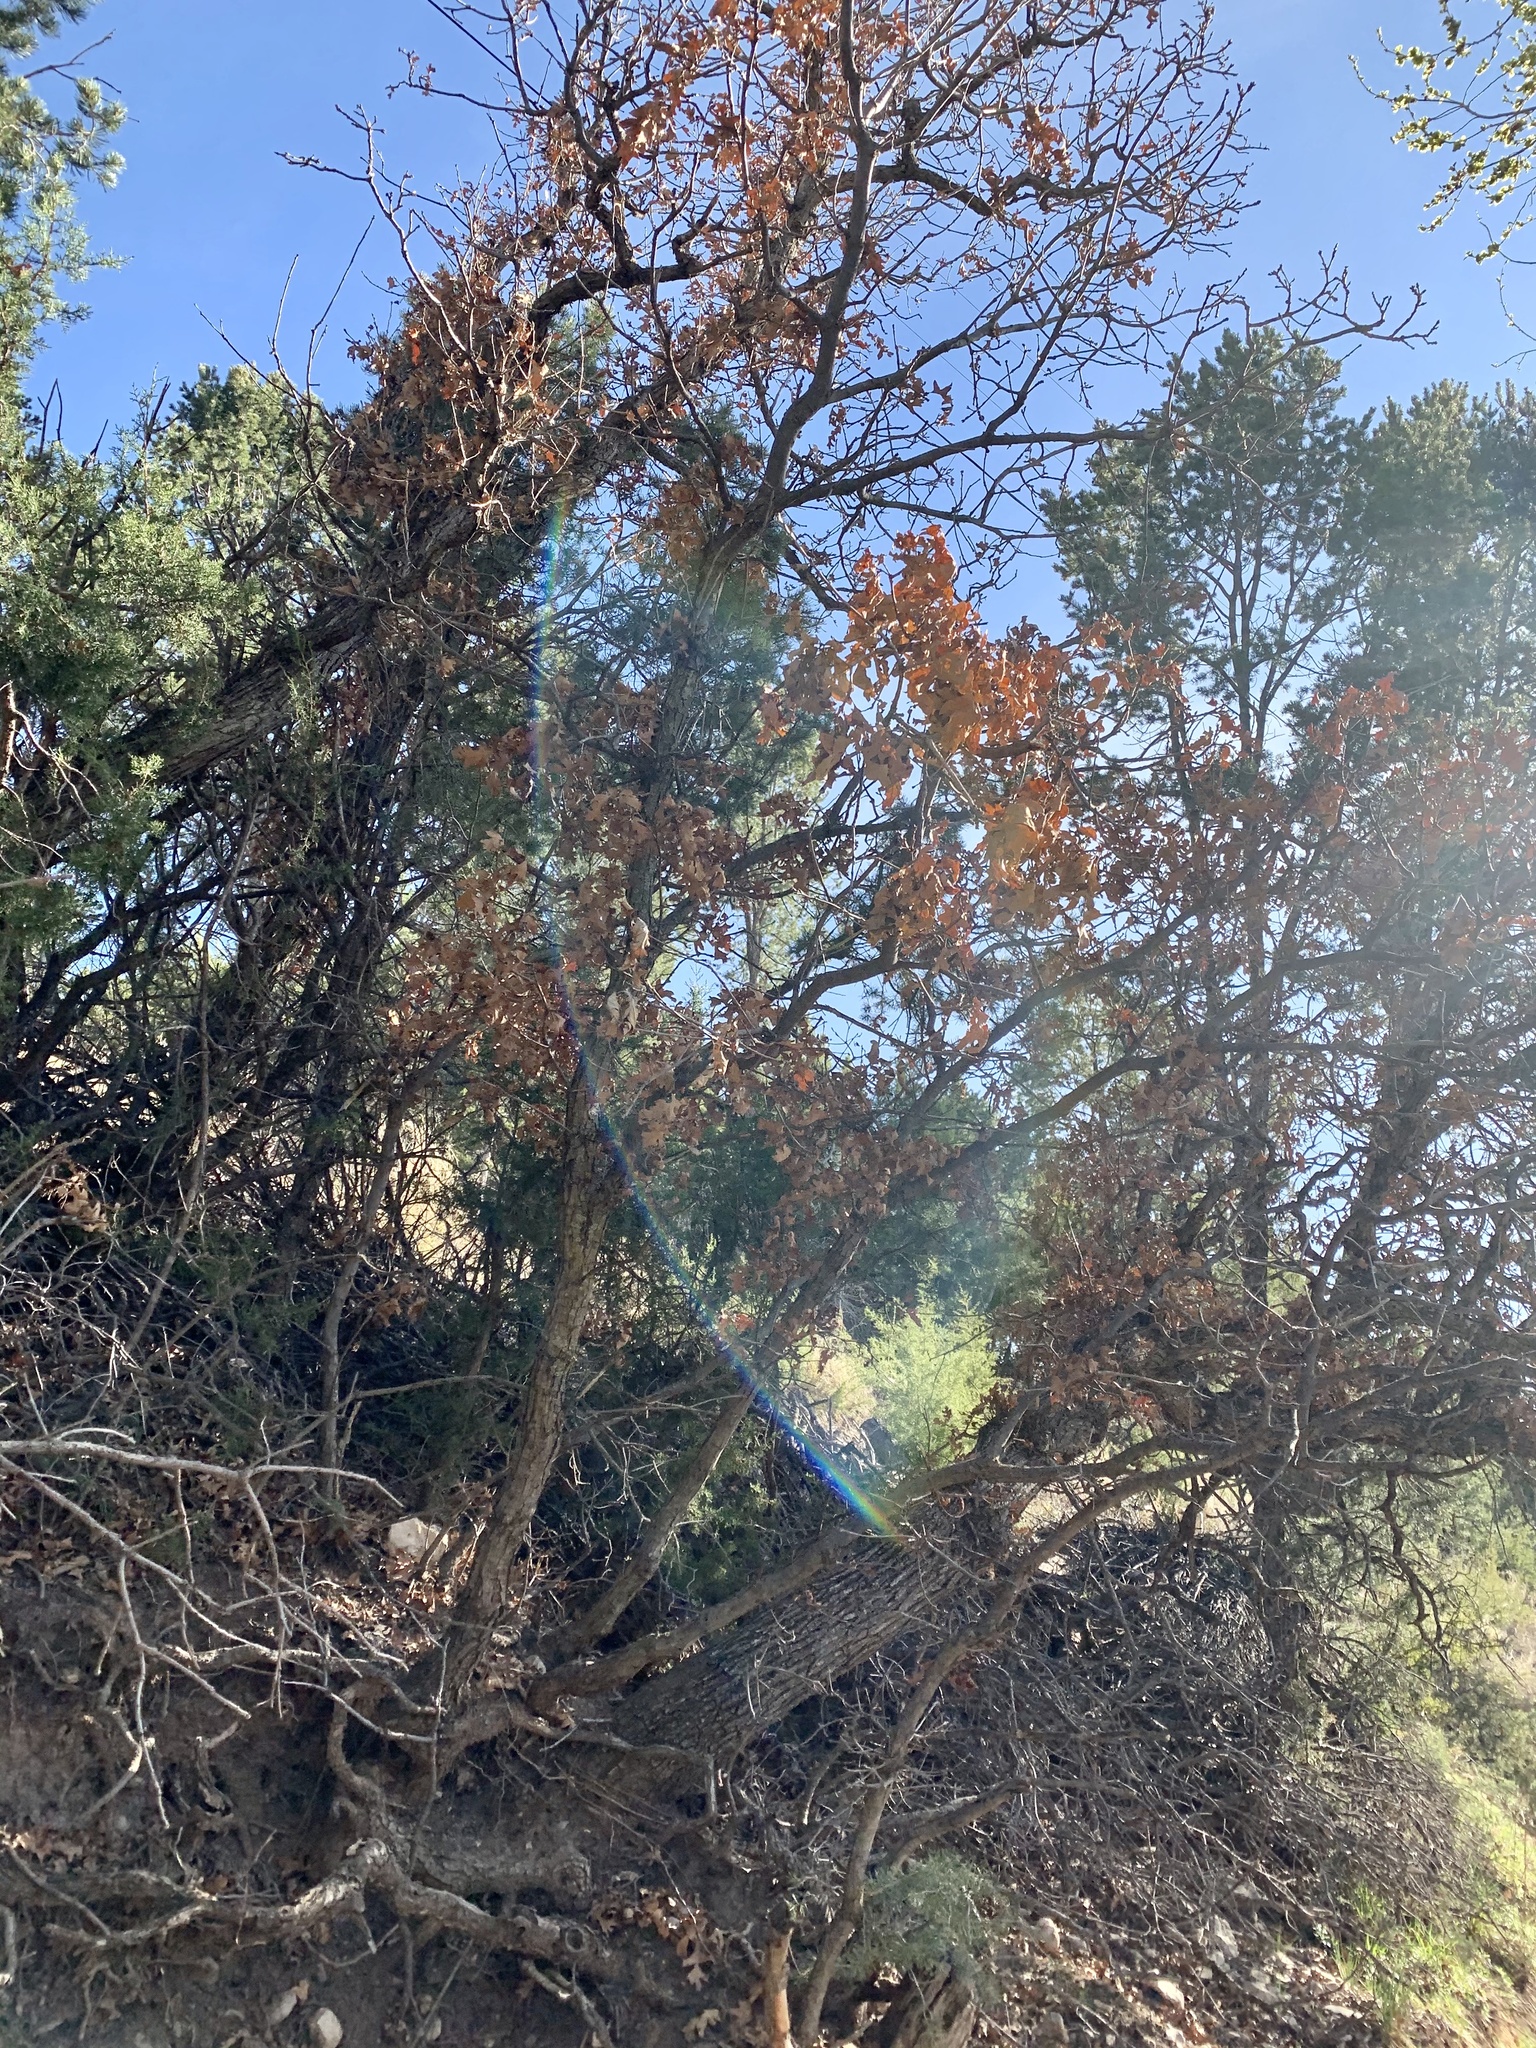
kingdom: Plantae
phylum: Tracheophyta
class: Magnoliopsida
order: Fagales
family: Fagaceae
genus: Quercus
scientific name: Quercus gambelii
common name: Gambel oak
